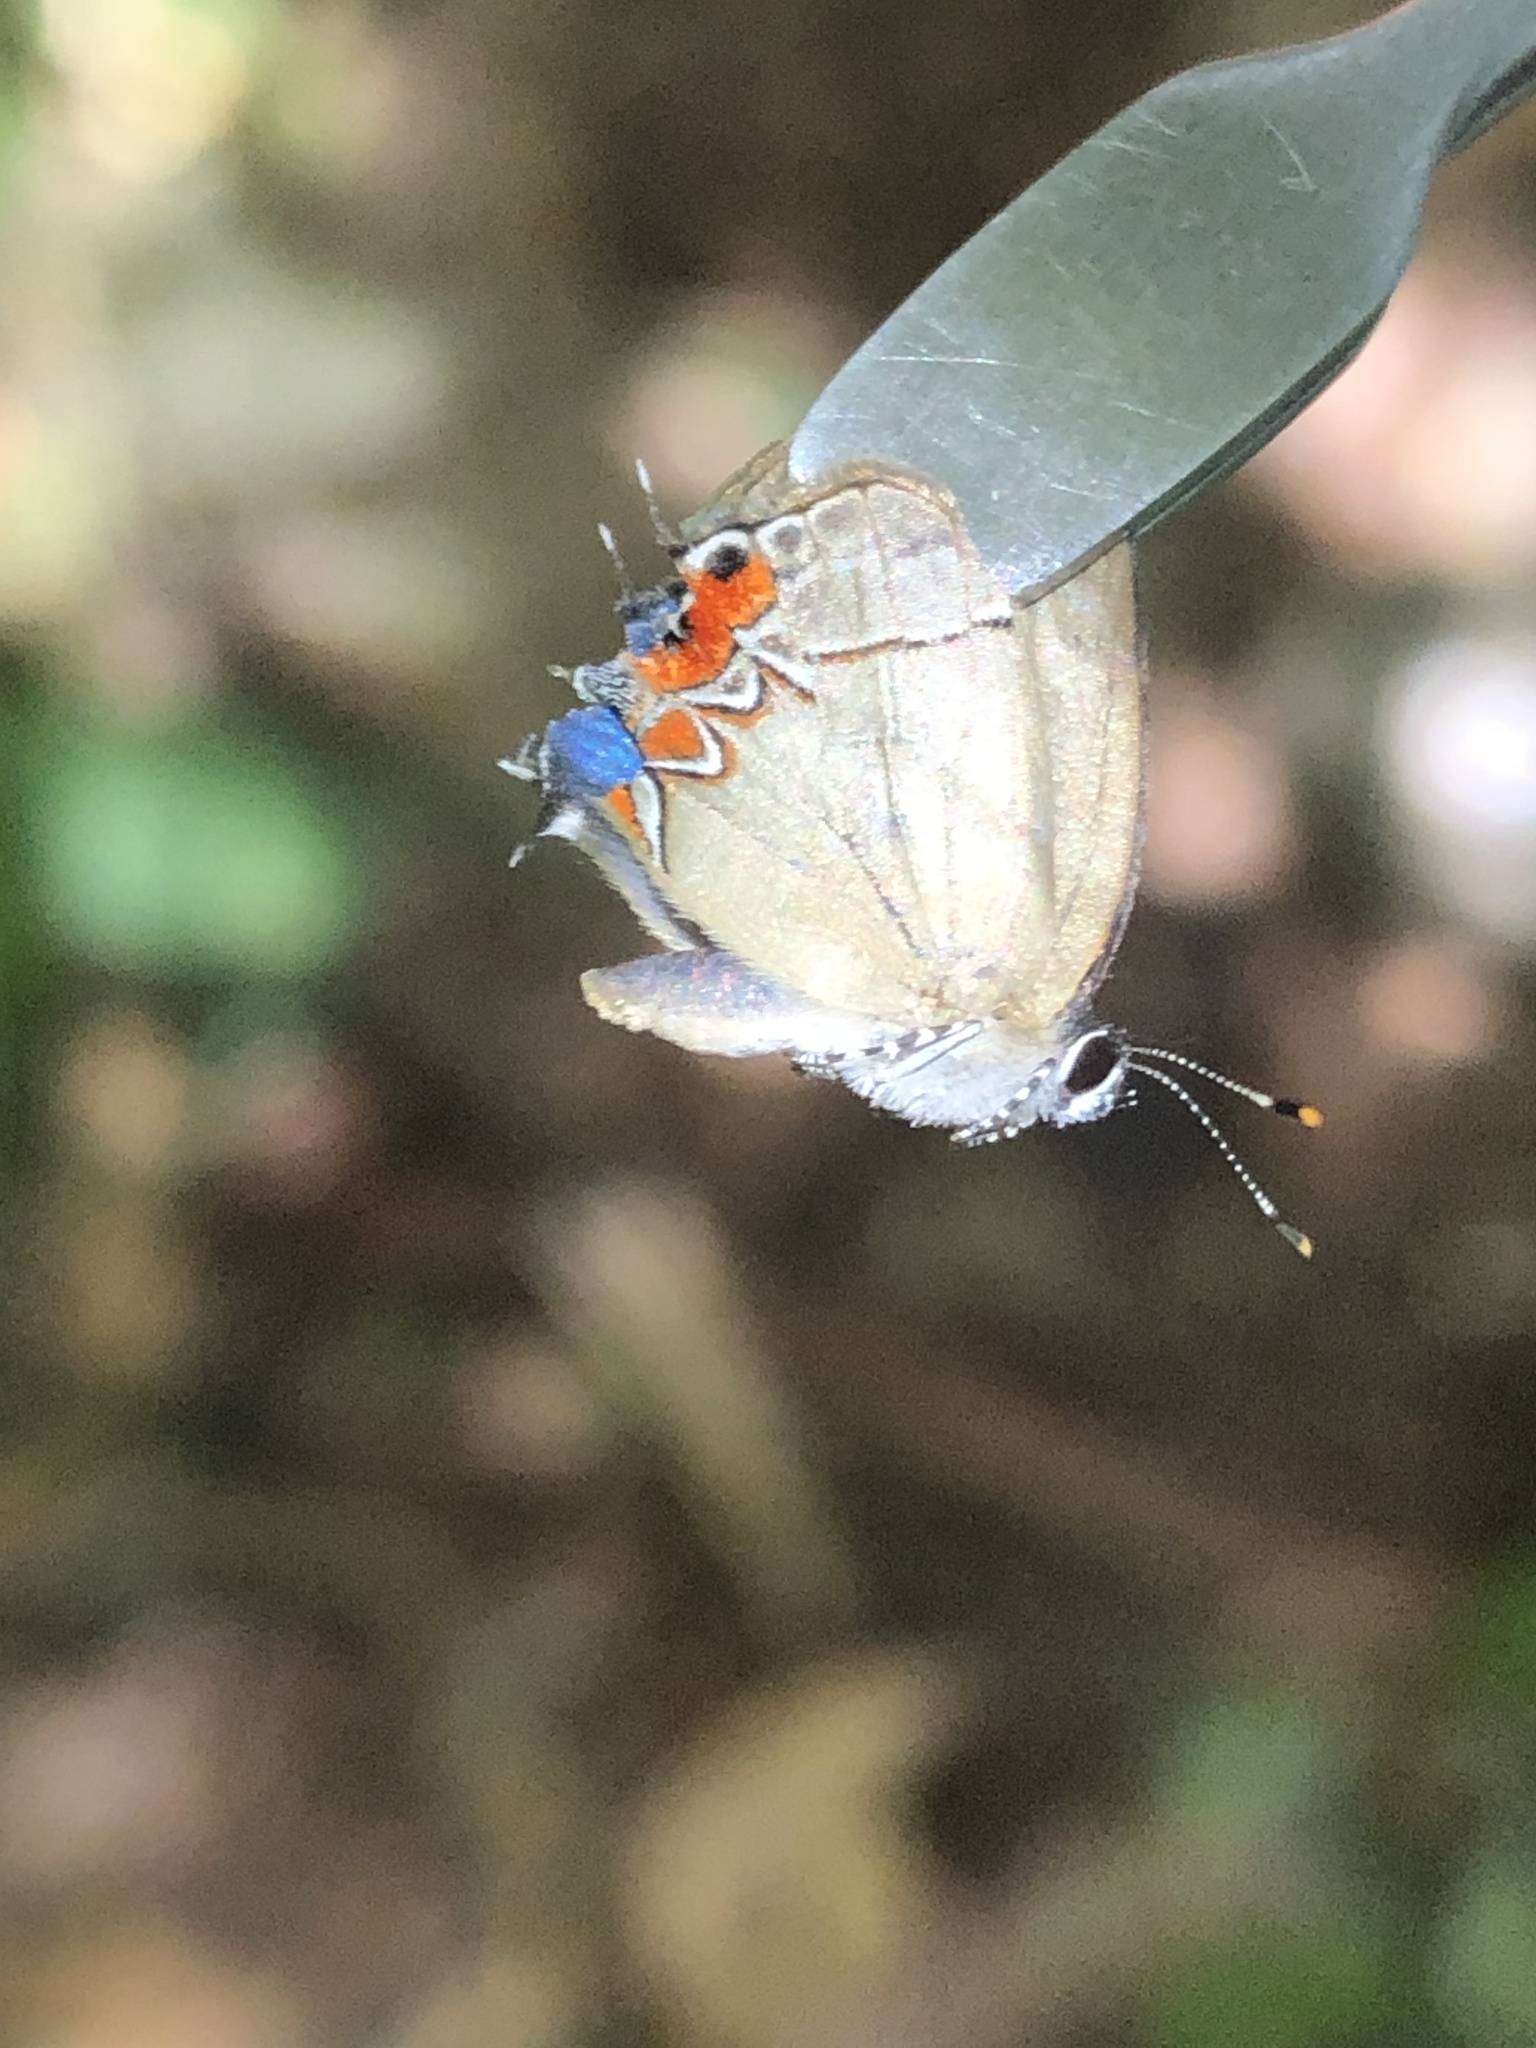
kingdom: Animalia
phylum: Arthropoda
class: Insecta
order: Lepidoptera
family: Lycaenidae
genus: Thecla
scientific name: Thecla cerata
